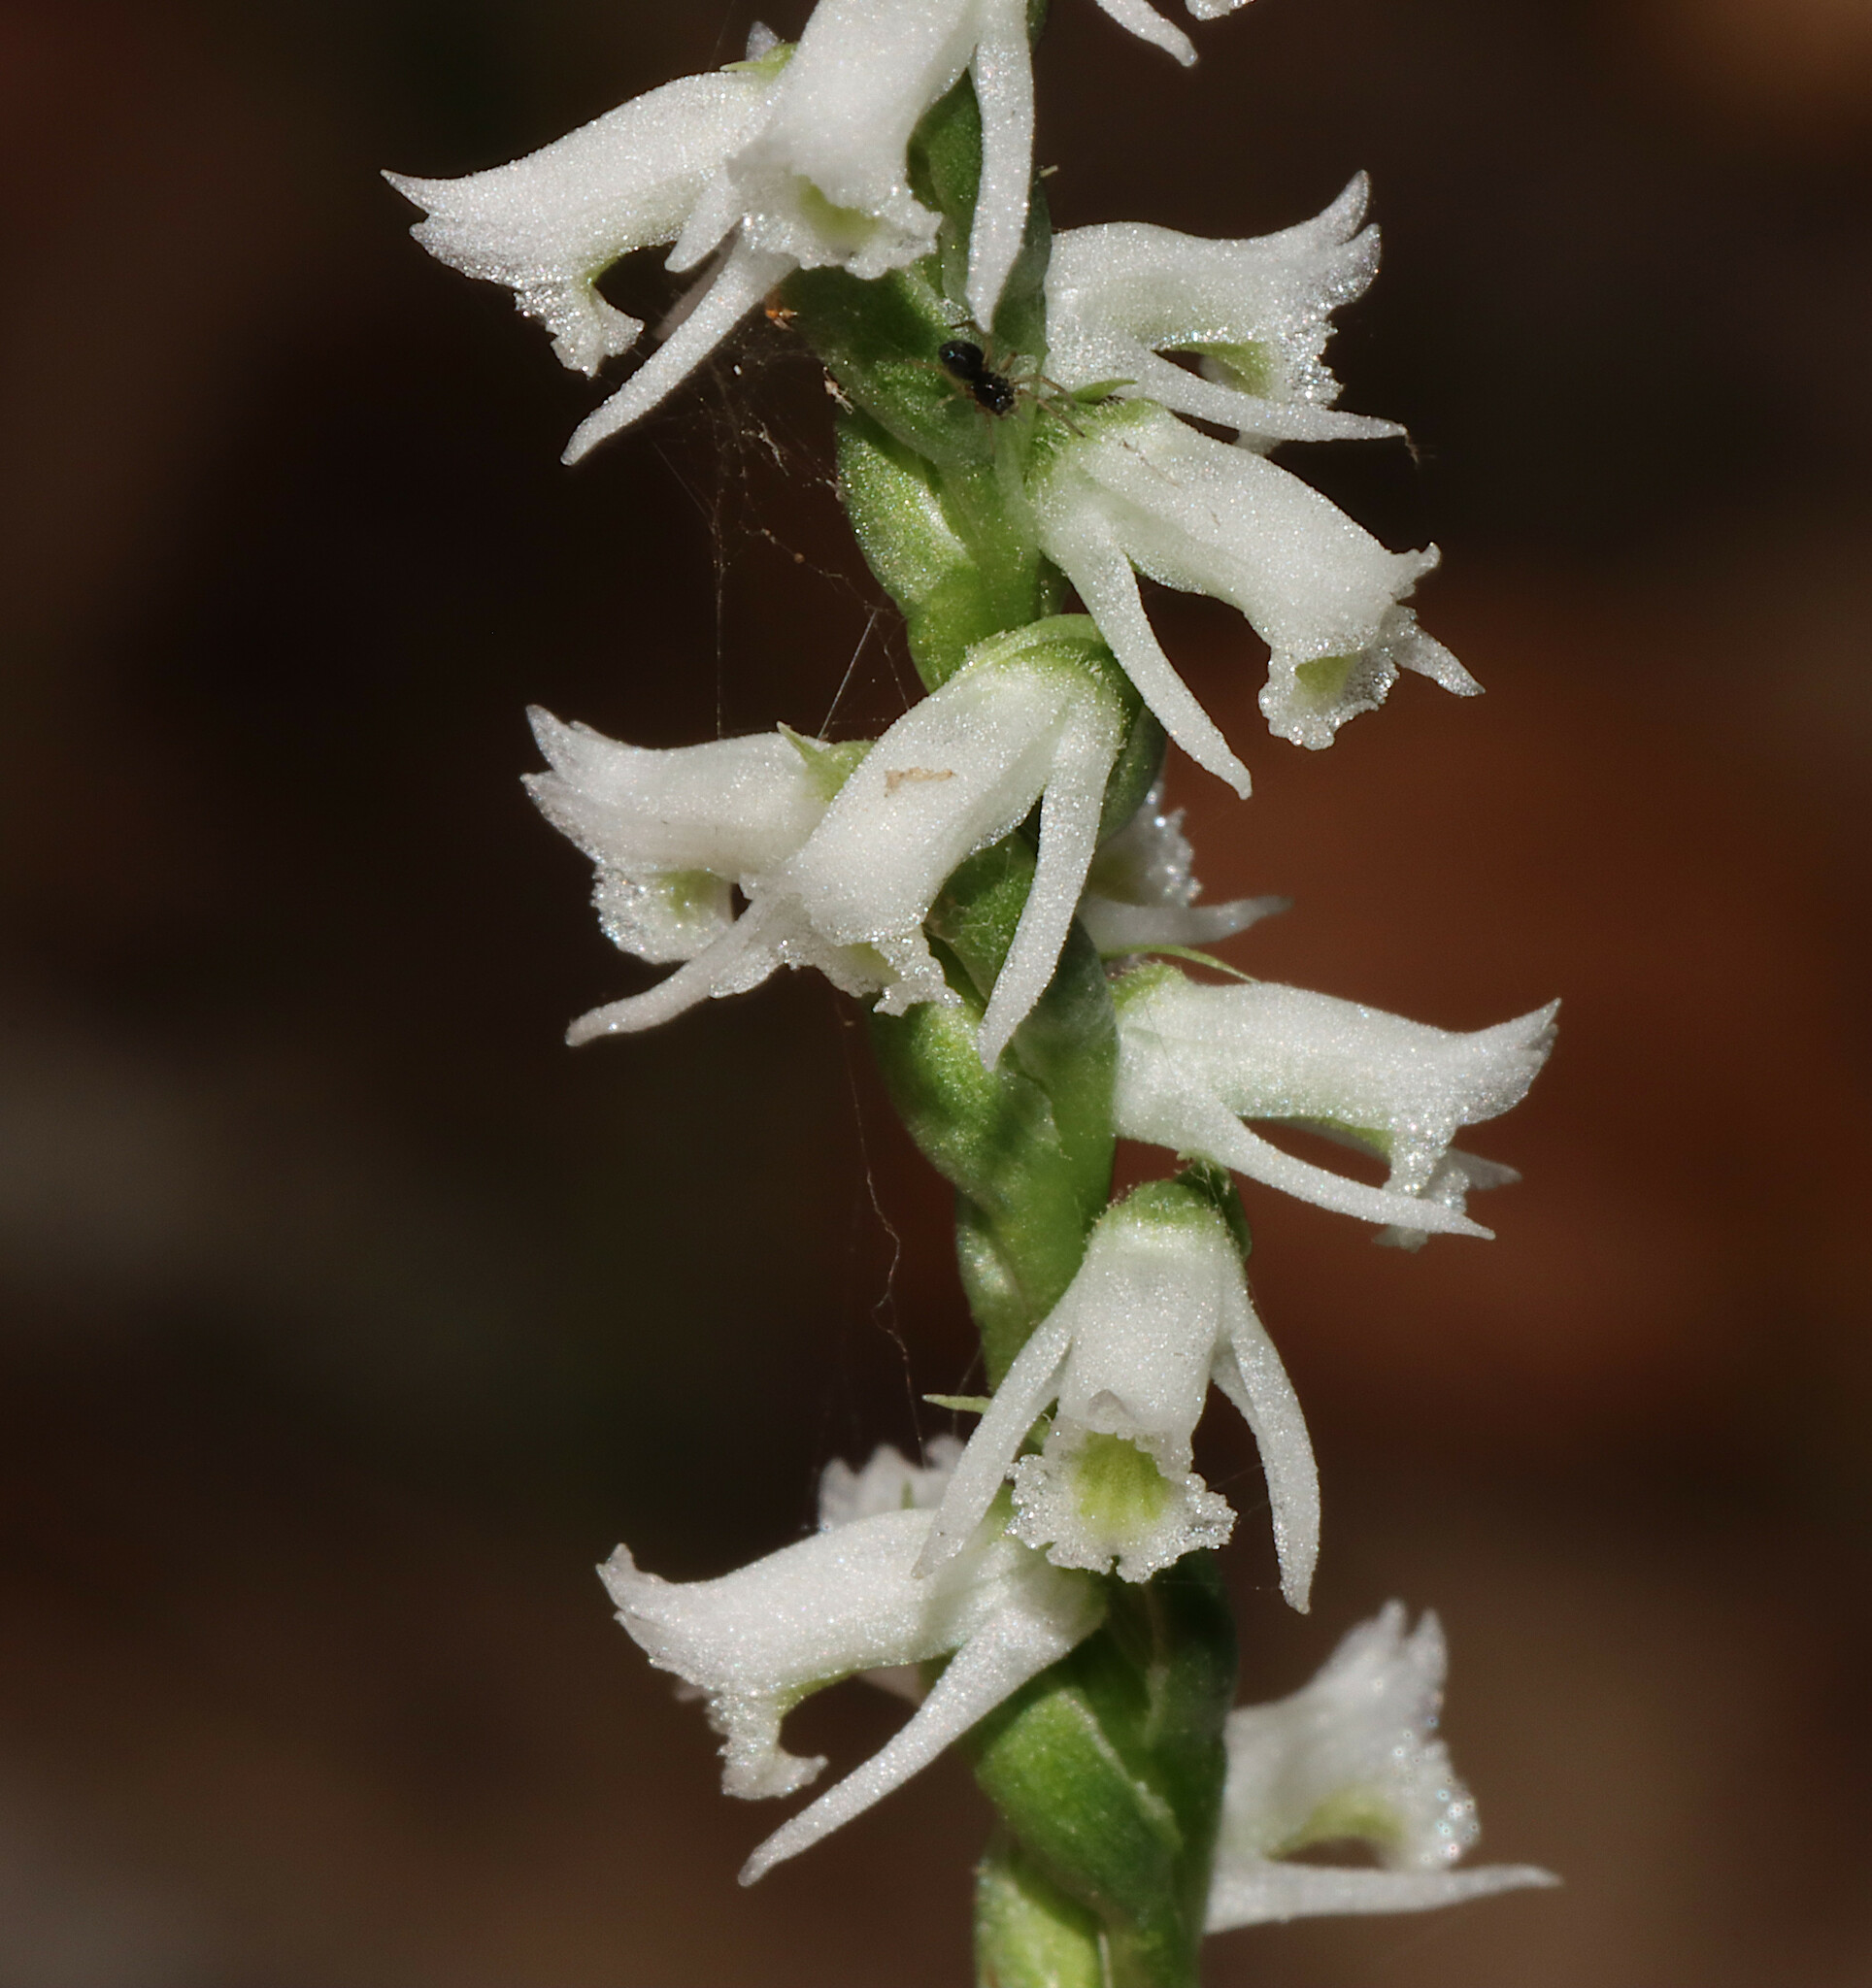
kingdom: Plantae
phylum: Tracheophyta
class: Liliopsida
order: Asparagales
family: Orchidaceae
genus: Spiranthes
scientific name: Spiranthes lacera
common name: Northern slender ladies'-tresses
